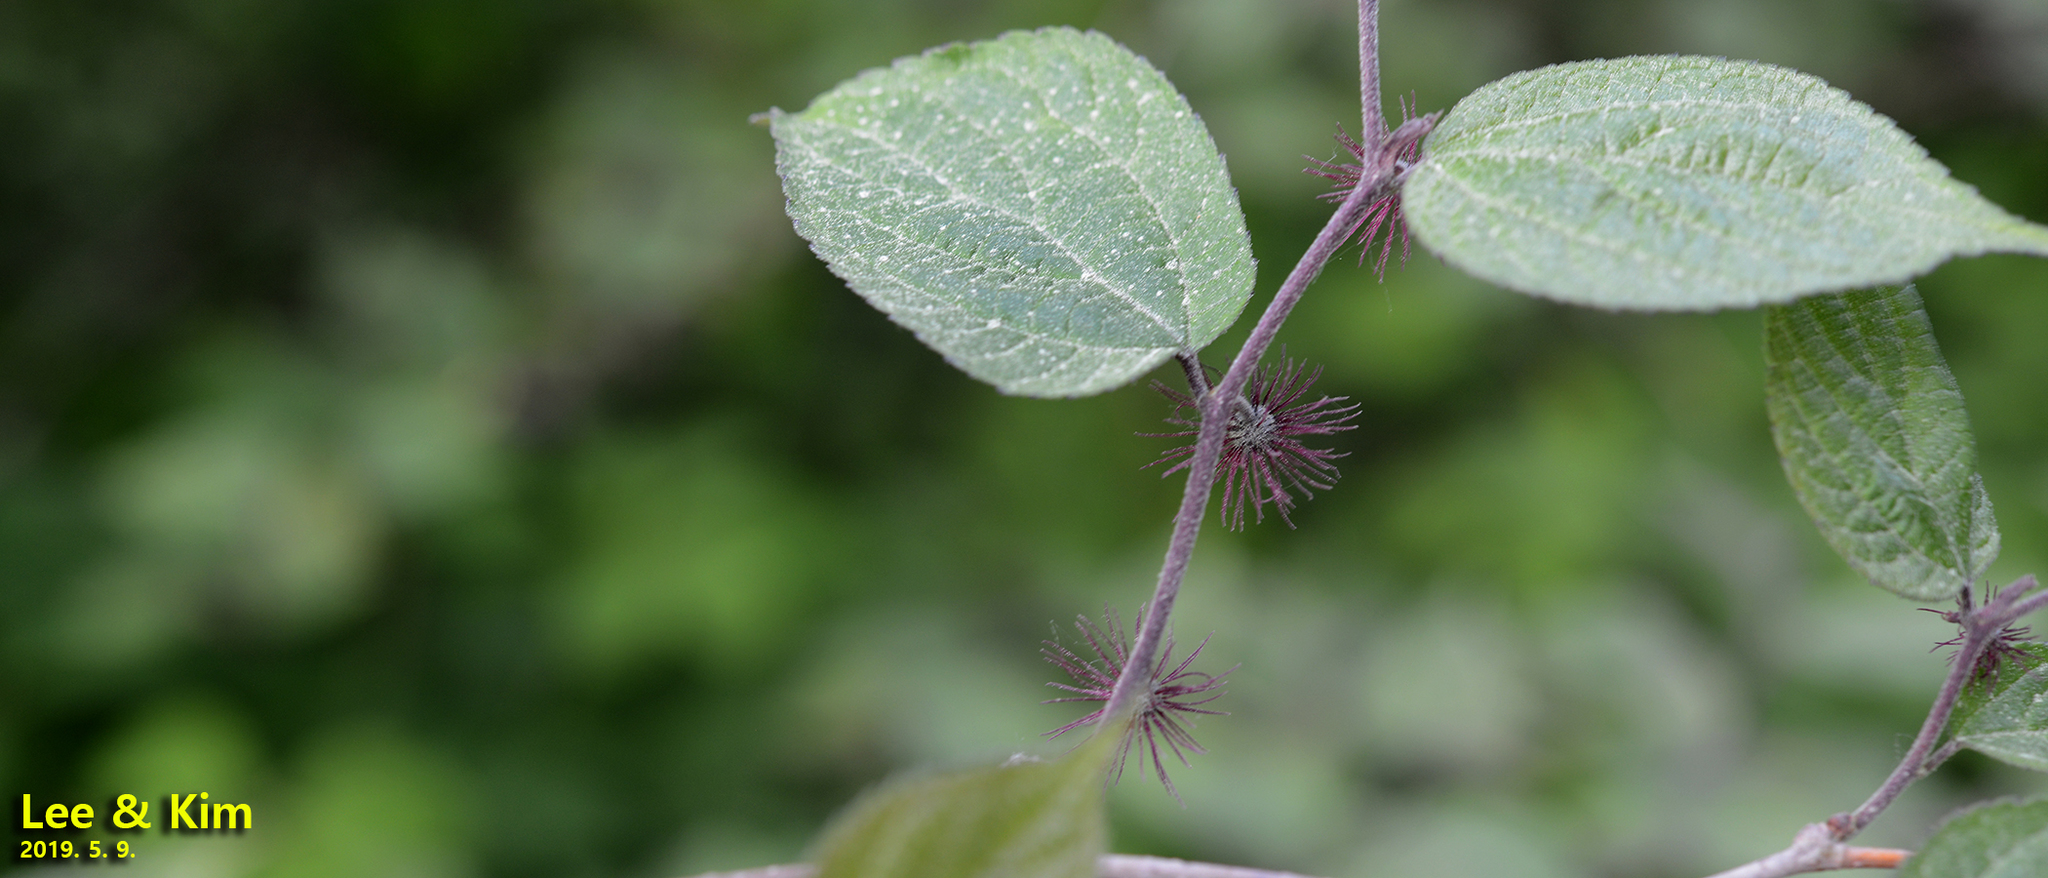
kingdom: Plantae
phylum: Tracheophyta
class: Magnoliopsida
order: Rosales
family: Moraceae
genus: Broussonetia
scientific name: Broussonetia monoica
